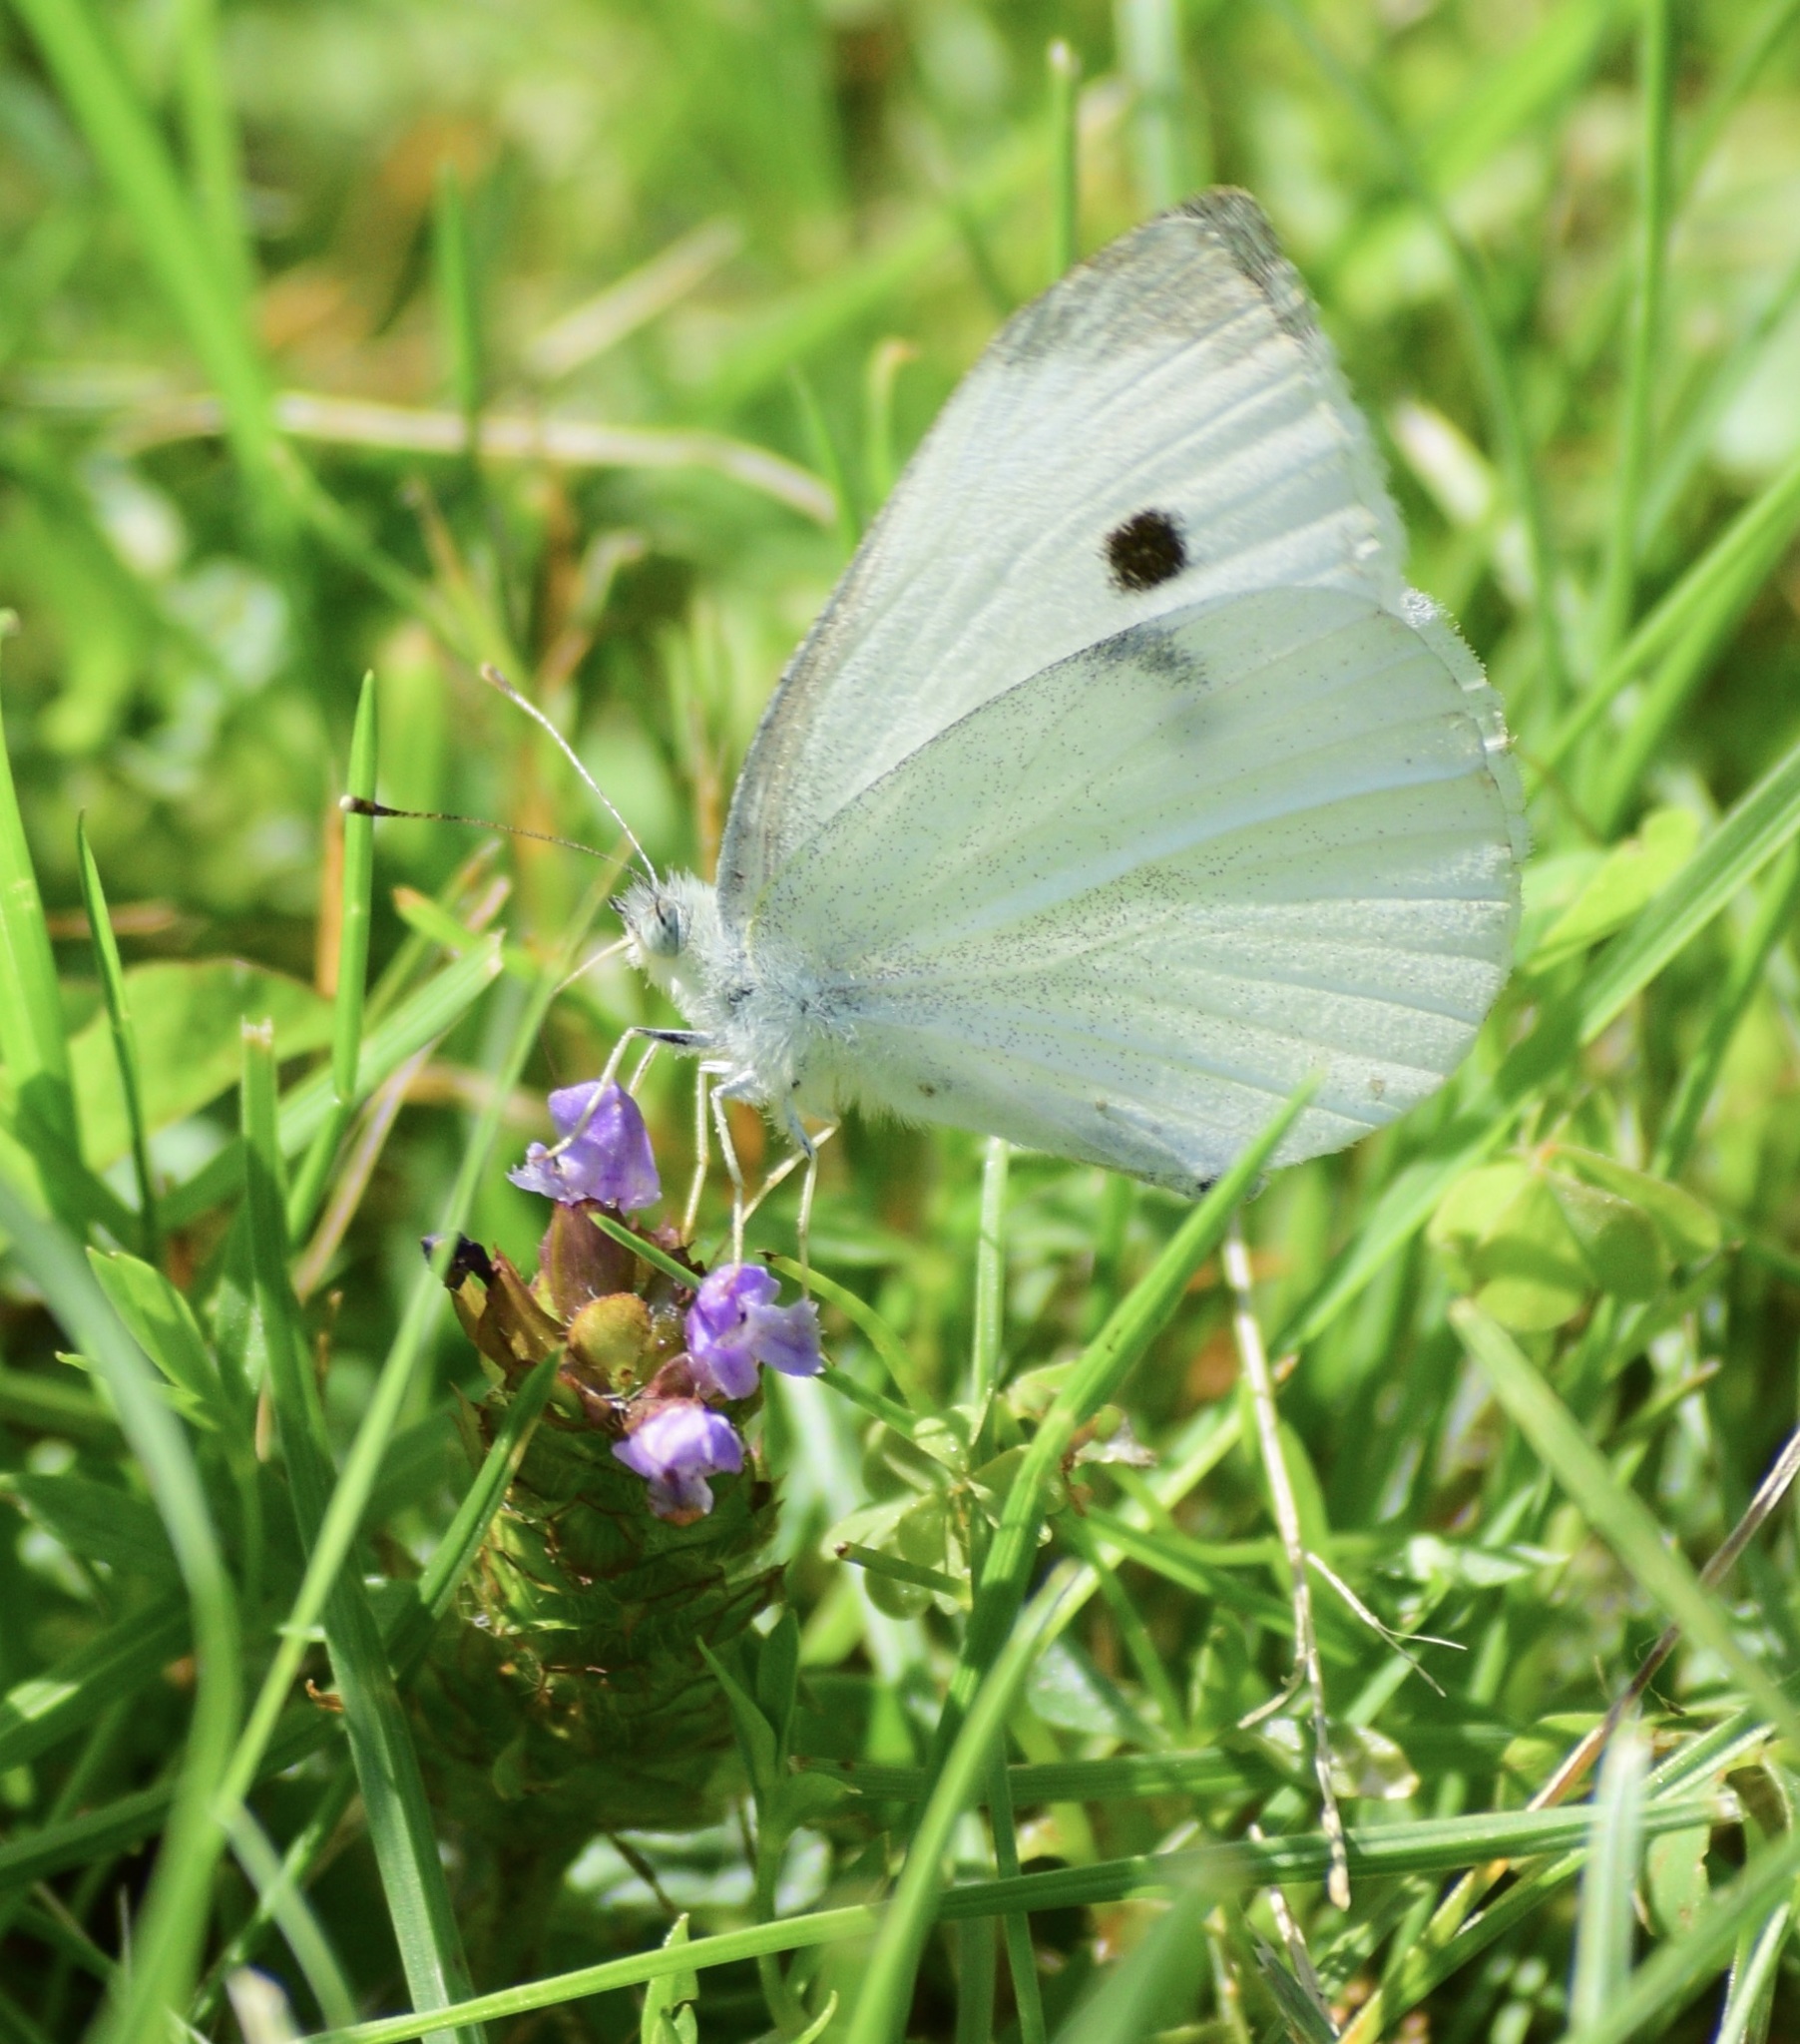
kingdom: Animalia
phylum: Arthropoda
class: Insecta
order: Lepidoptera
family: Pieridae
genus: Pieris
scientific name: Pieris rapae
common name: Small white
